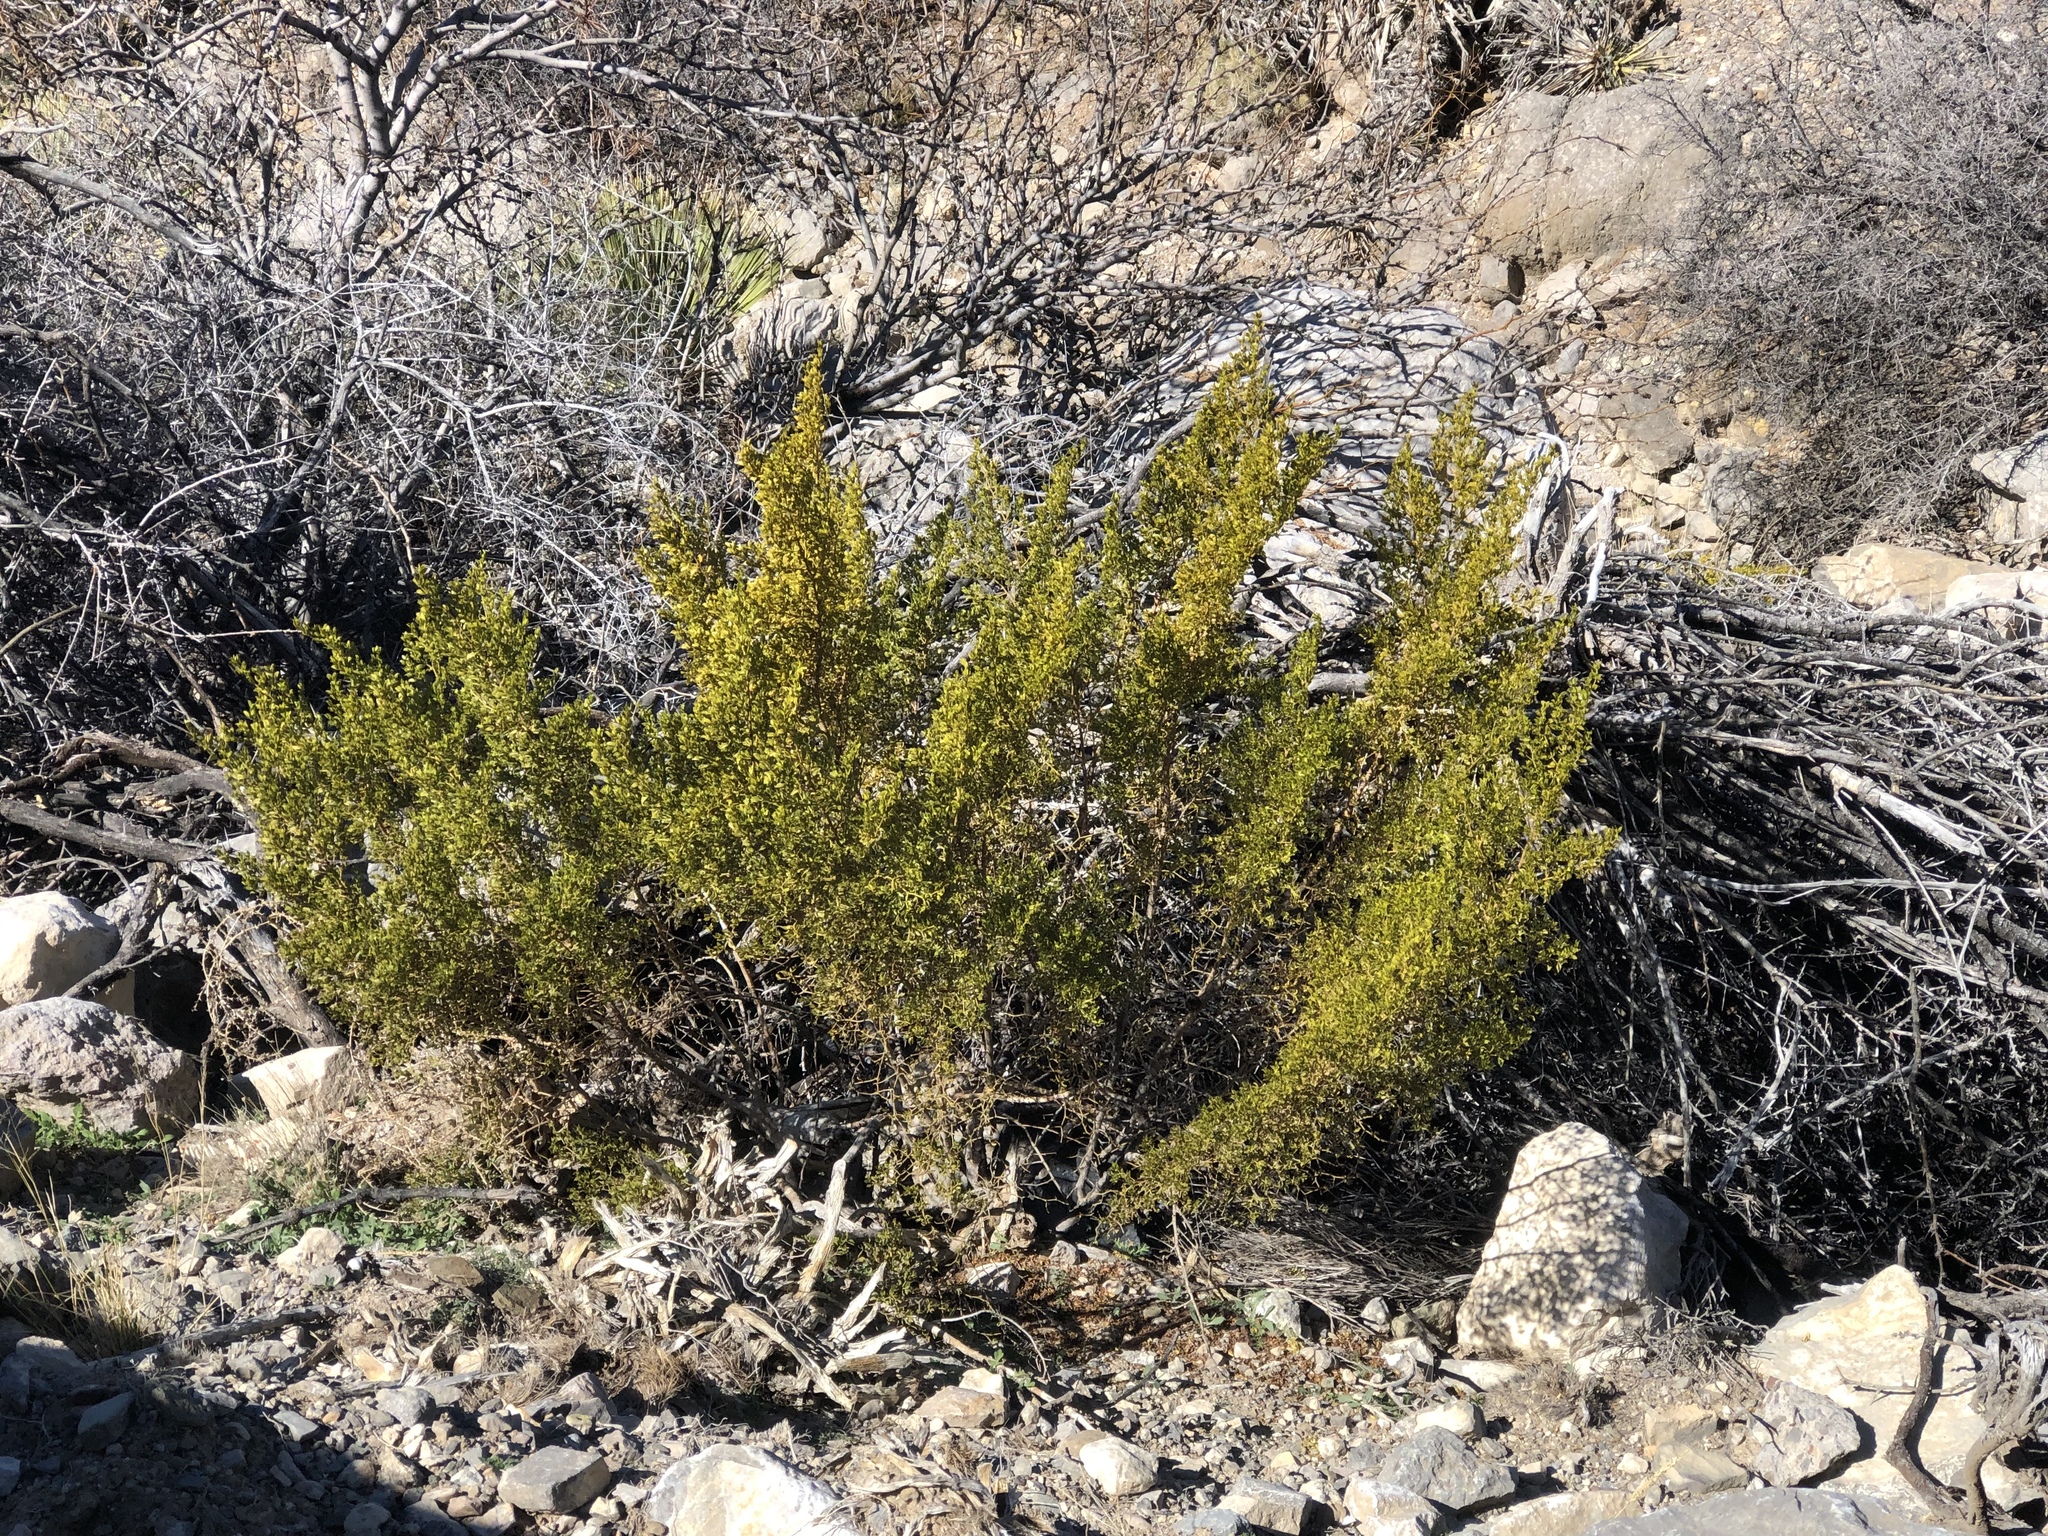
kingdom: Plantae
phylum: Tracheophyta
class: Magnoliopsida
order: Zygophyllales
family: Zygophyllaceae
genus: Larrea
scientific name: Larrea tridentata
